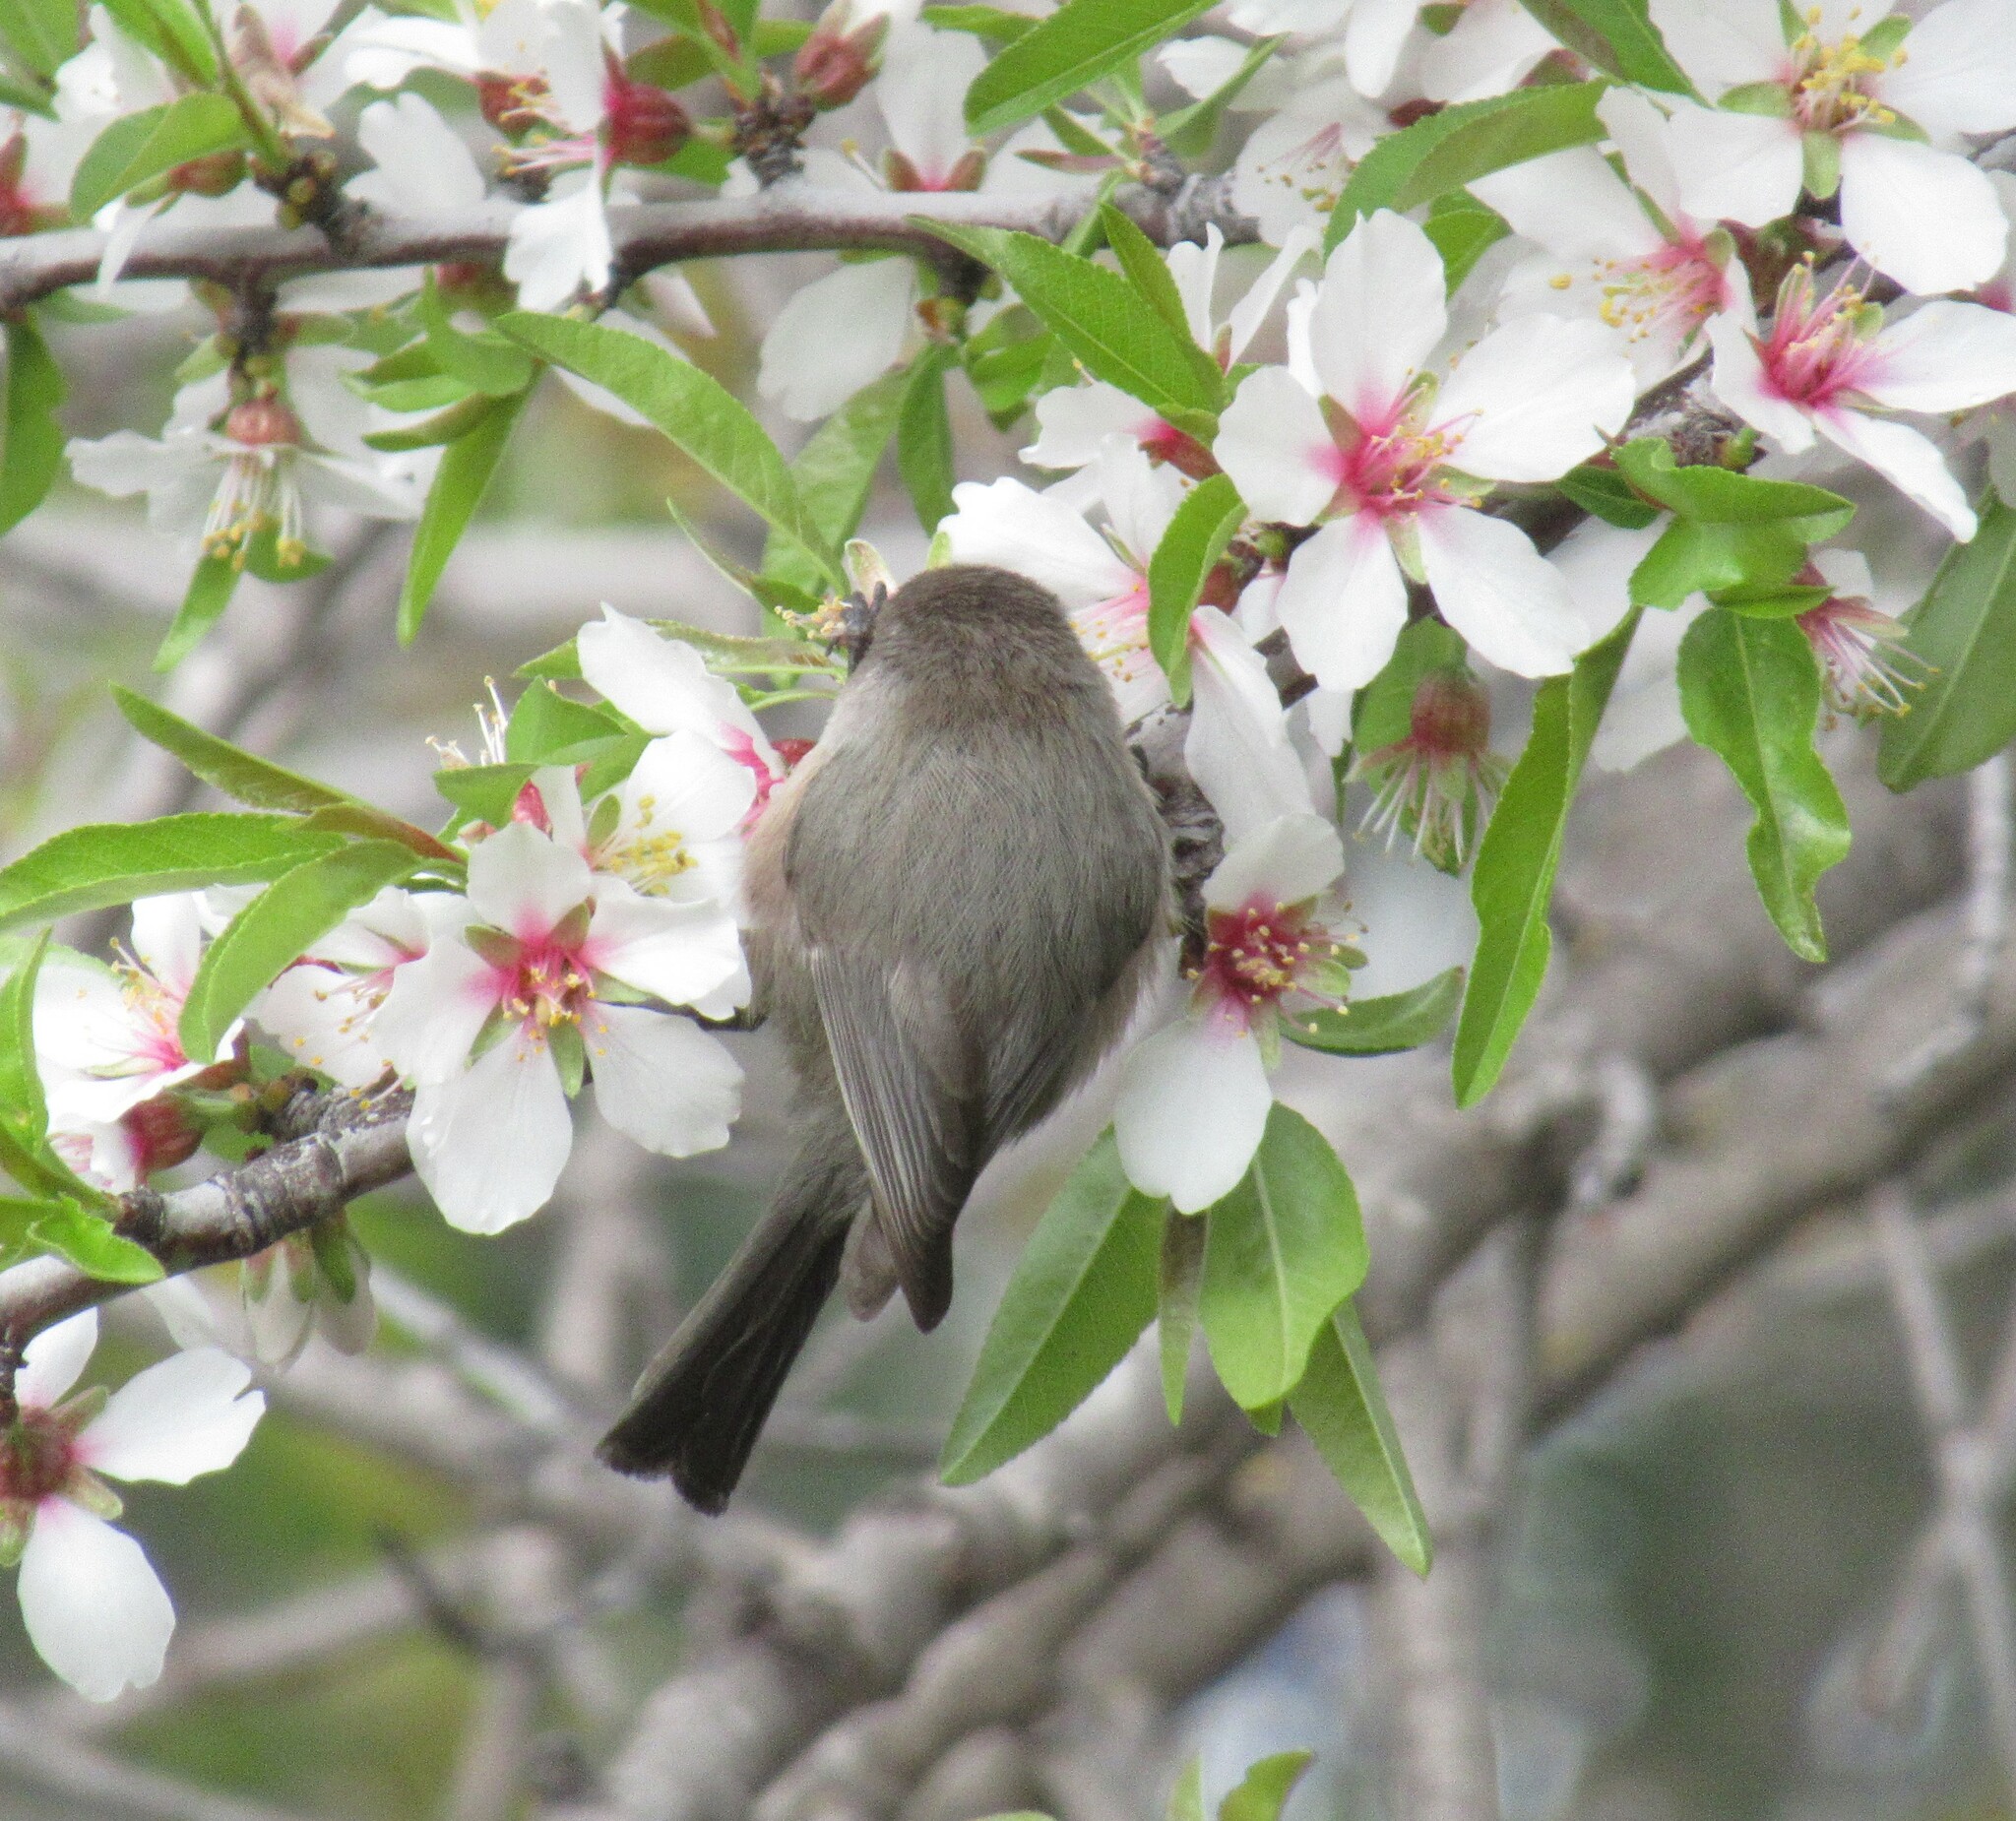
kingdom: Animalia
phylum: Chordata
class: Aves
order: Passeriformes
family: Aegithalidae
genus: Psaltriparus
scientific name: Psaltriparus minimus
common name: American bushtit
